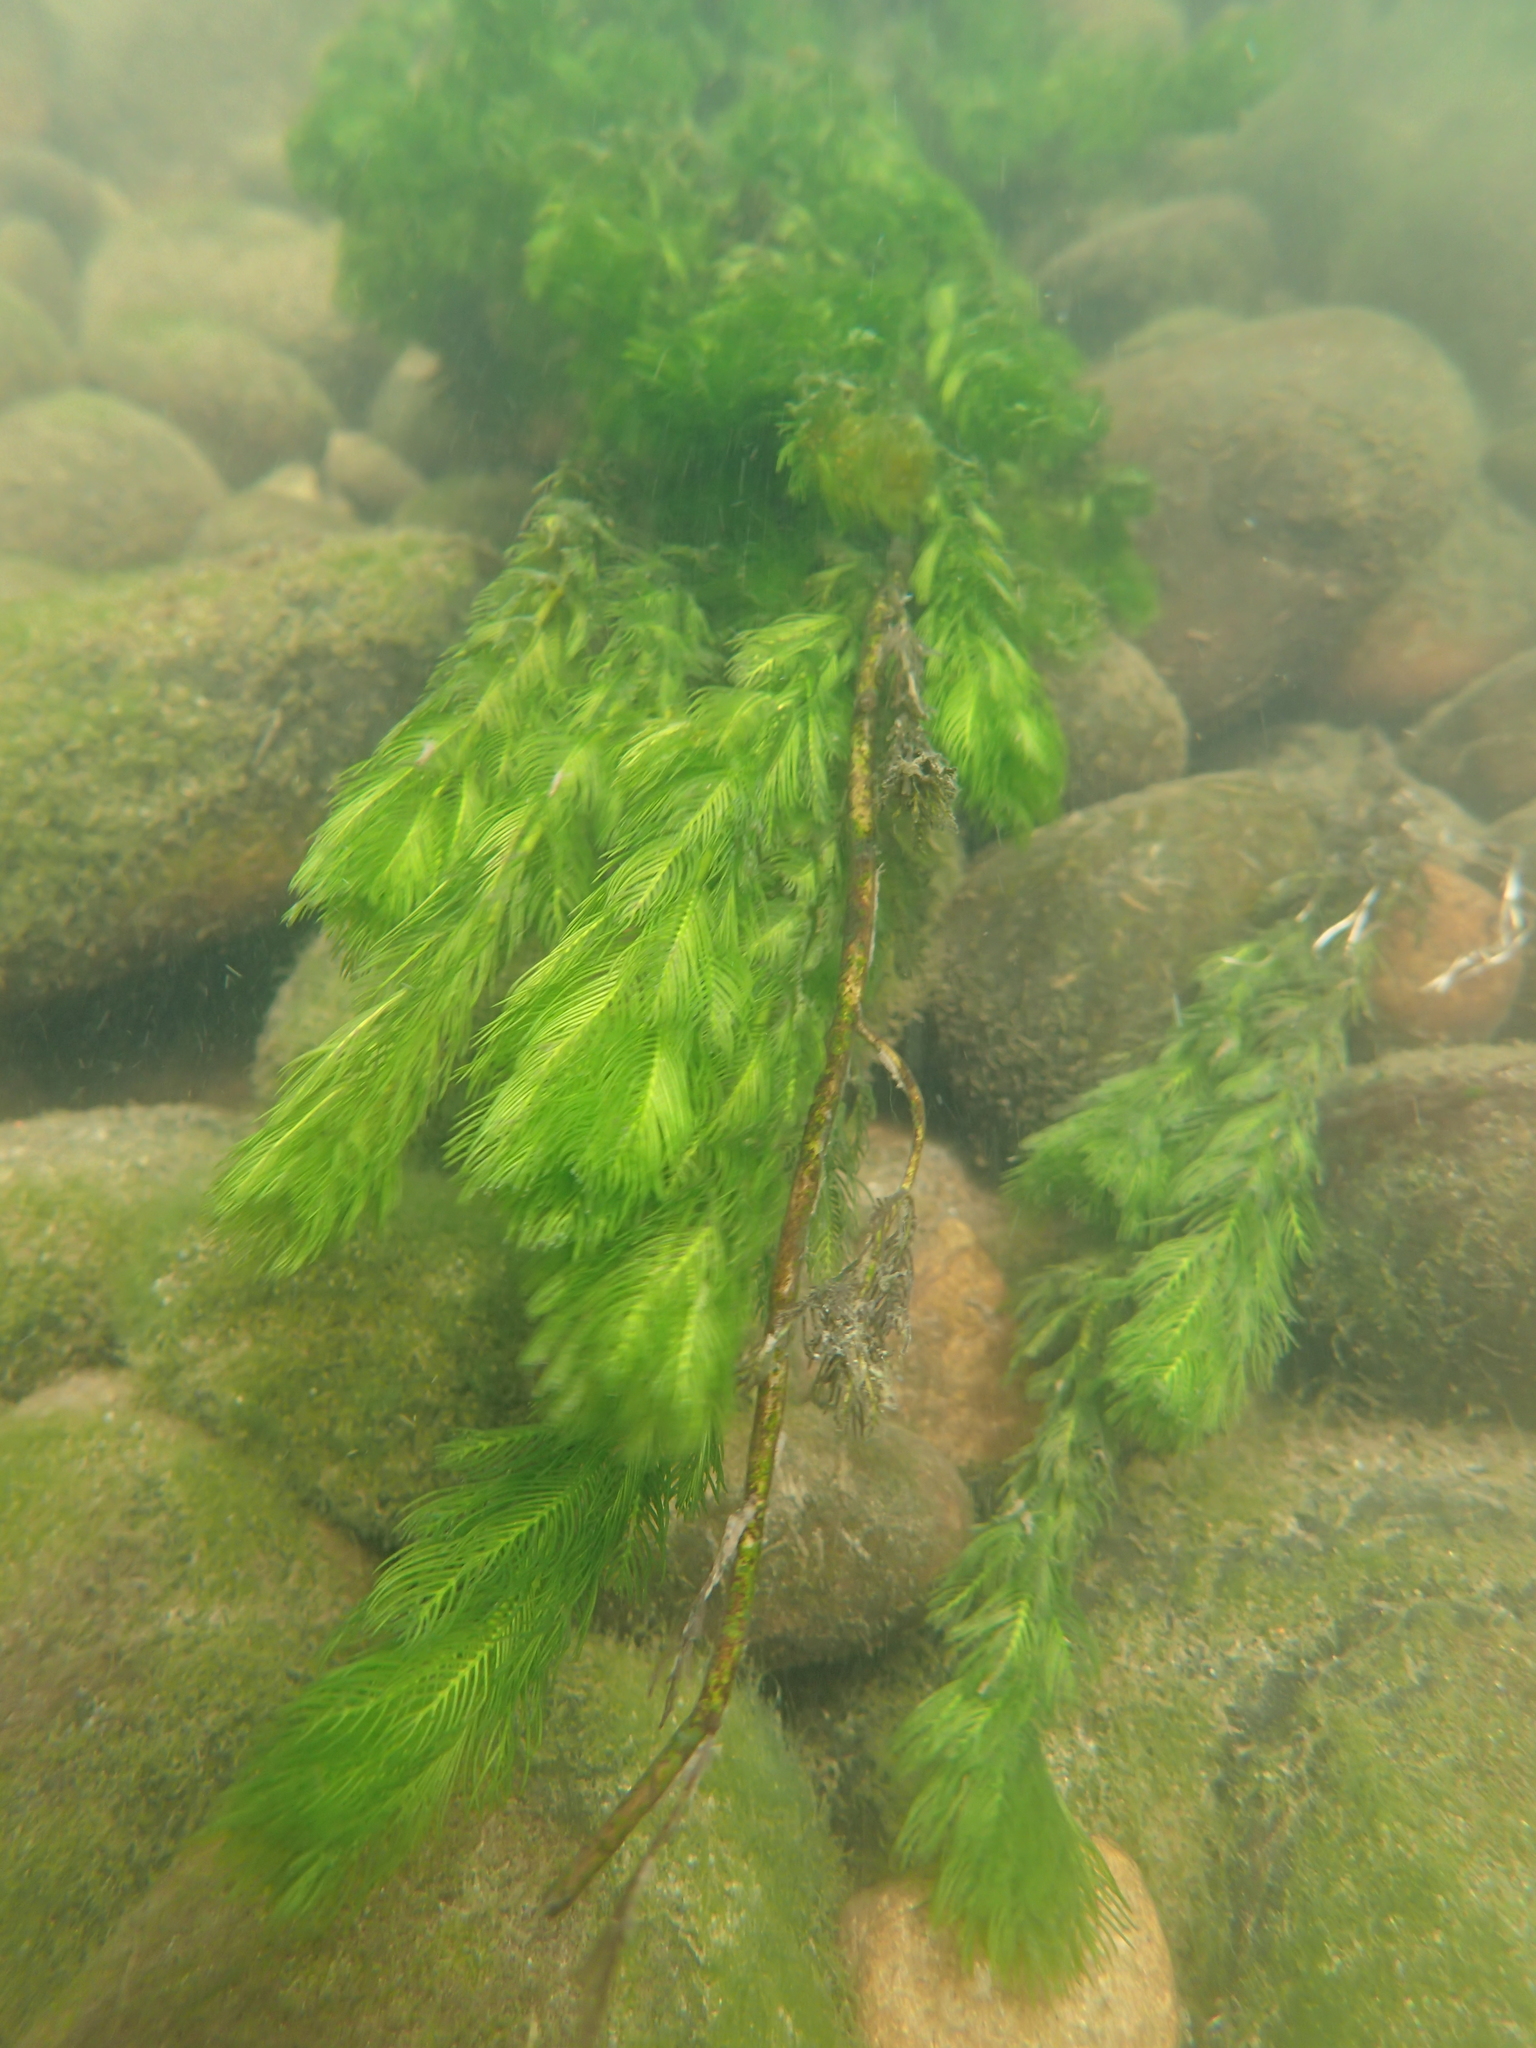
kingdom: Plantae
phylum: Tracheophyta
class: Magnoliopsida
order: Saxifragales
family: Haloragaceae
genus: Myriophyllum
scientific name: Myriophyllum spicatum
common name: Spiked water-milfoil
